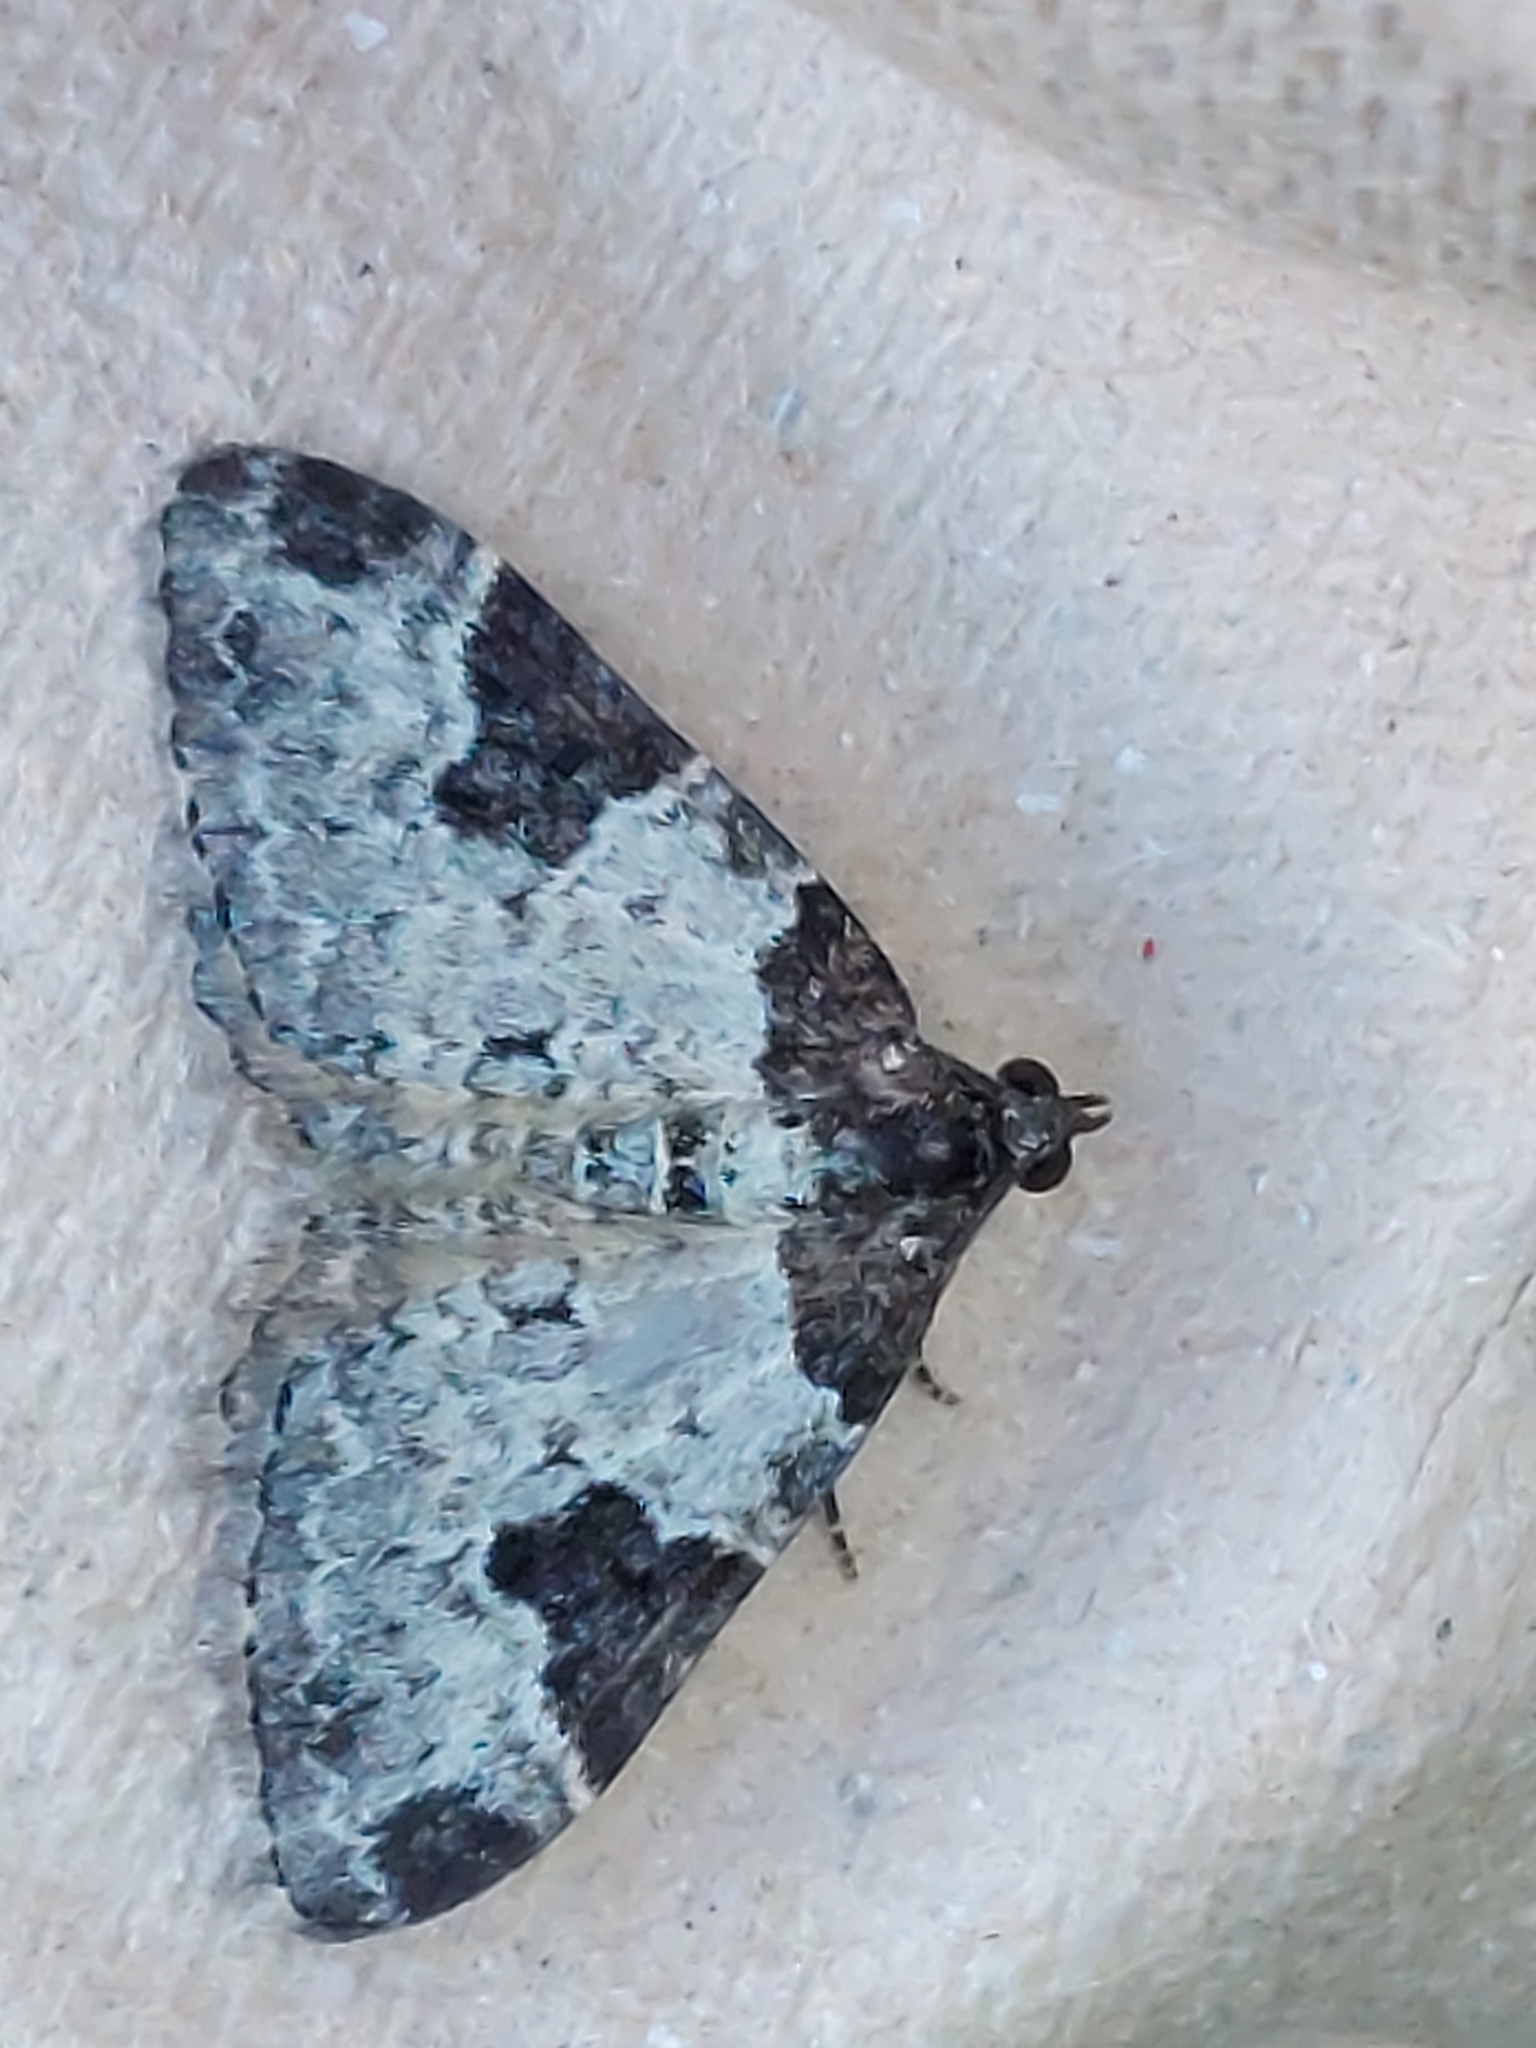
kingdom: Animalia
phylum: Arthropoda
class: Insecta
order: Lepidoptera
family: Geometridae
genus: Xanthorhoe
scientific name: Xanthorhoe fluctuata
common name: Garden carpet
